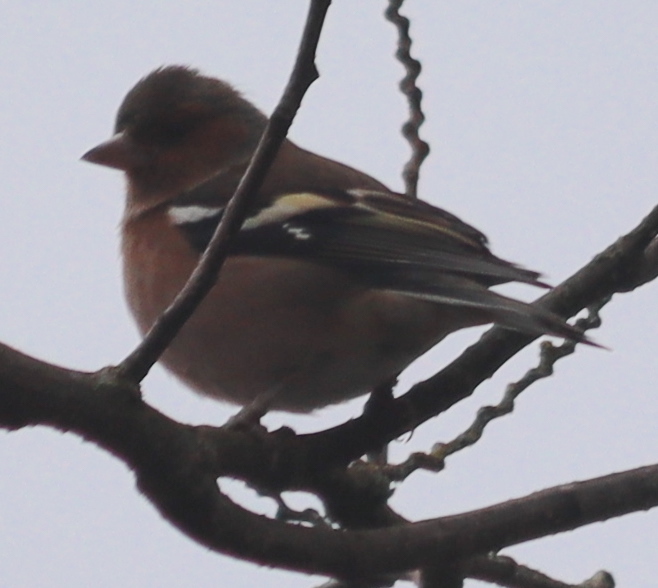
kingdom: Animalia
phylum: Chordata
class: Aves
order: Passeriformes
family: Fringillidae
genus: Fringilla
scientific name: Fringilla coelebs
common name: Common chaffinch
